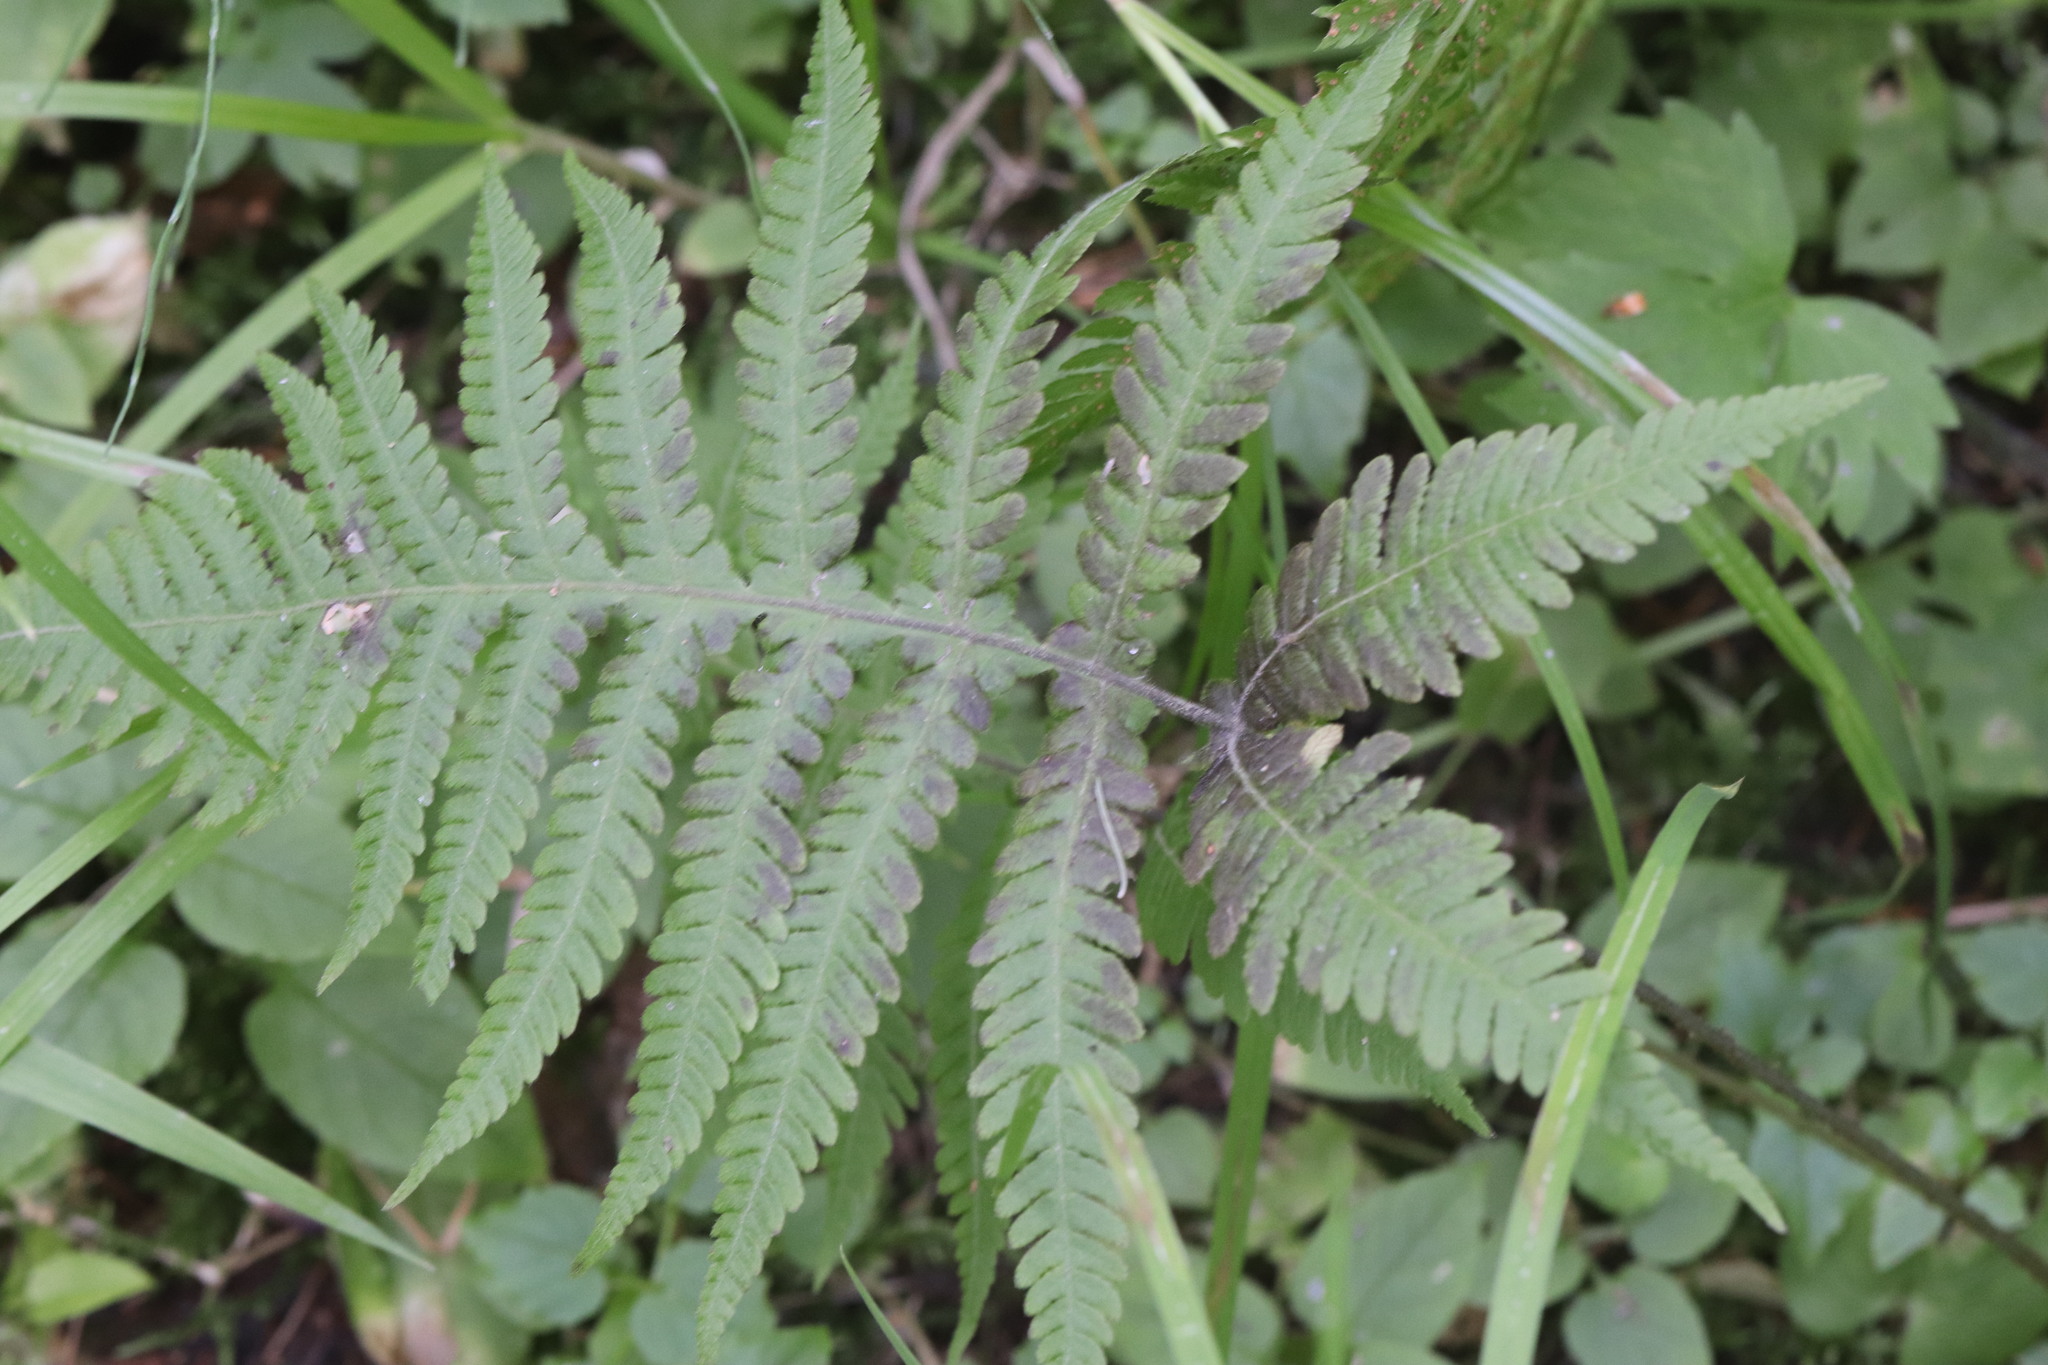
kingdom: Plantae
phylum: Tracheophyta
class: Polypodiopsida
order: Polypodiales
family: Thelypteridaceae
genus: Phegopteris
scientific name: Phegopteris connectilis
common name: Beech fern
